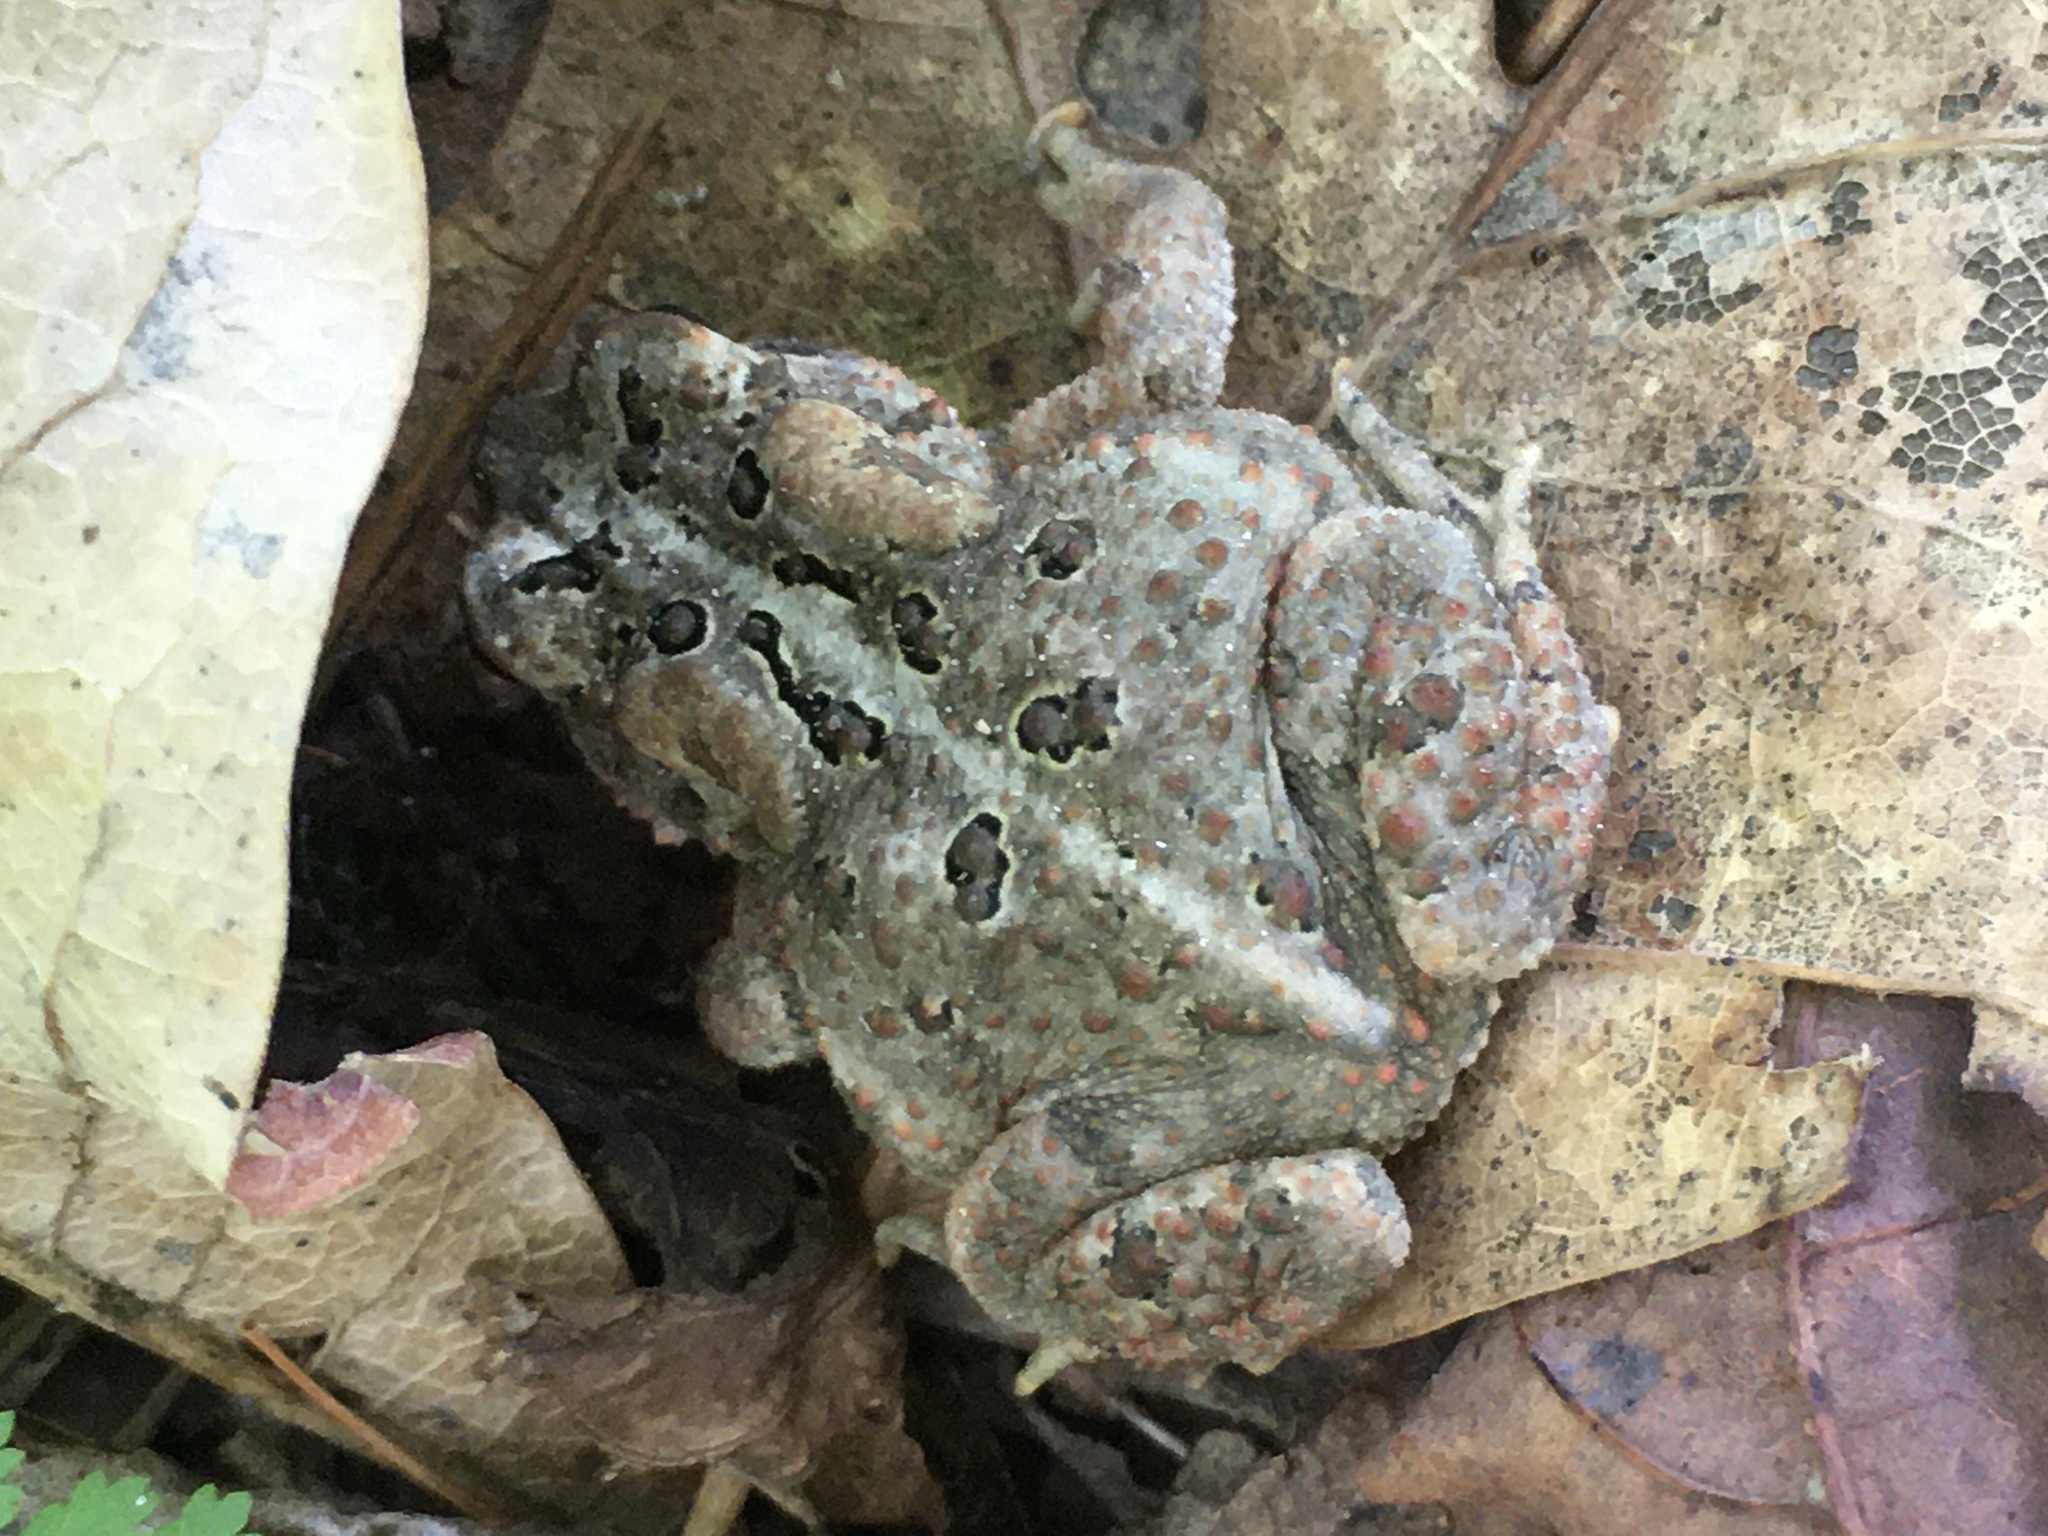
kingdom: Animalia
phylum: Chordata
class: Amphibia
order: Anura
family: Bufonidae
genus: Anaxyrus
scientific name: Anaxyrus americanus
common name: American toad
